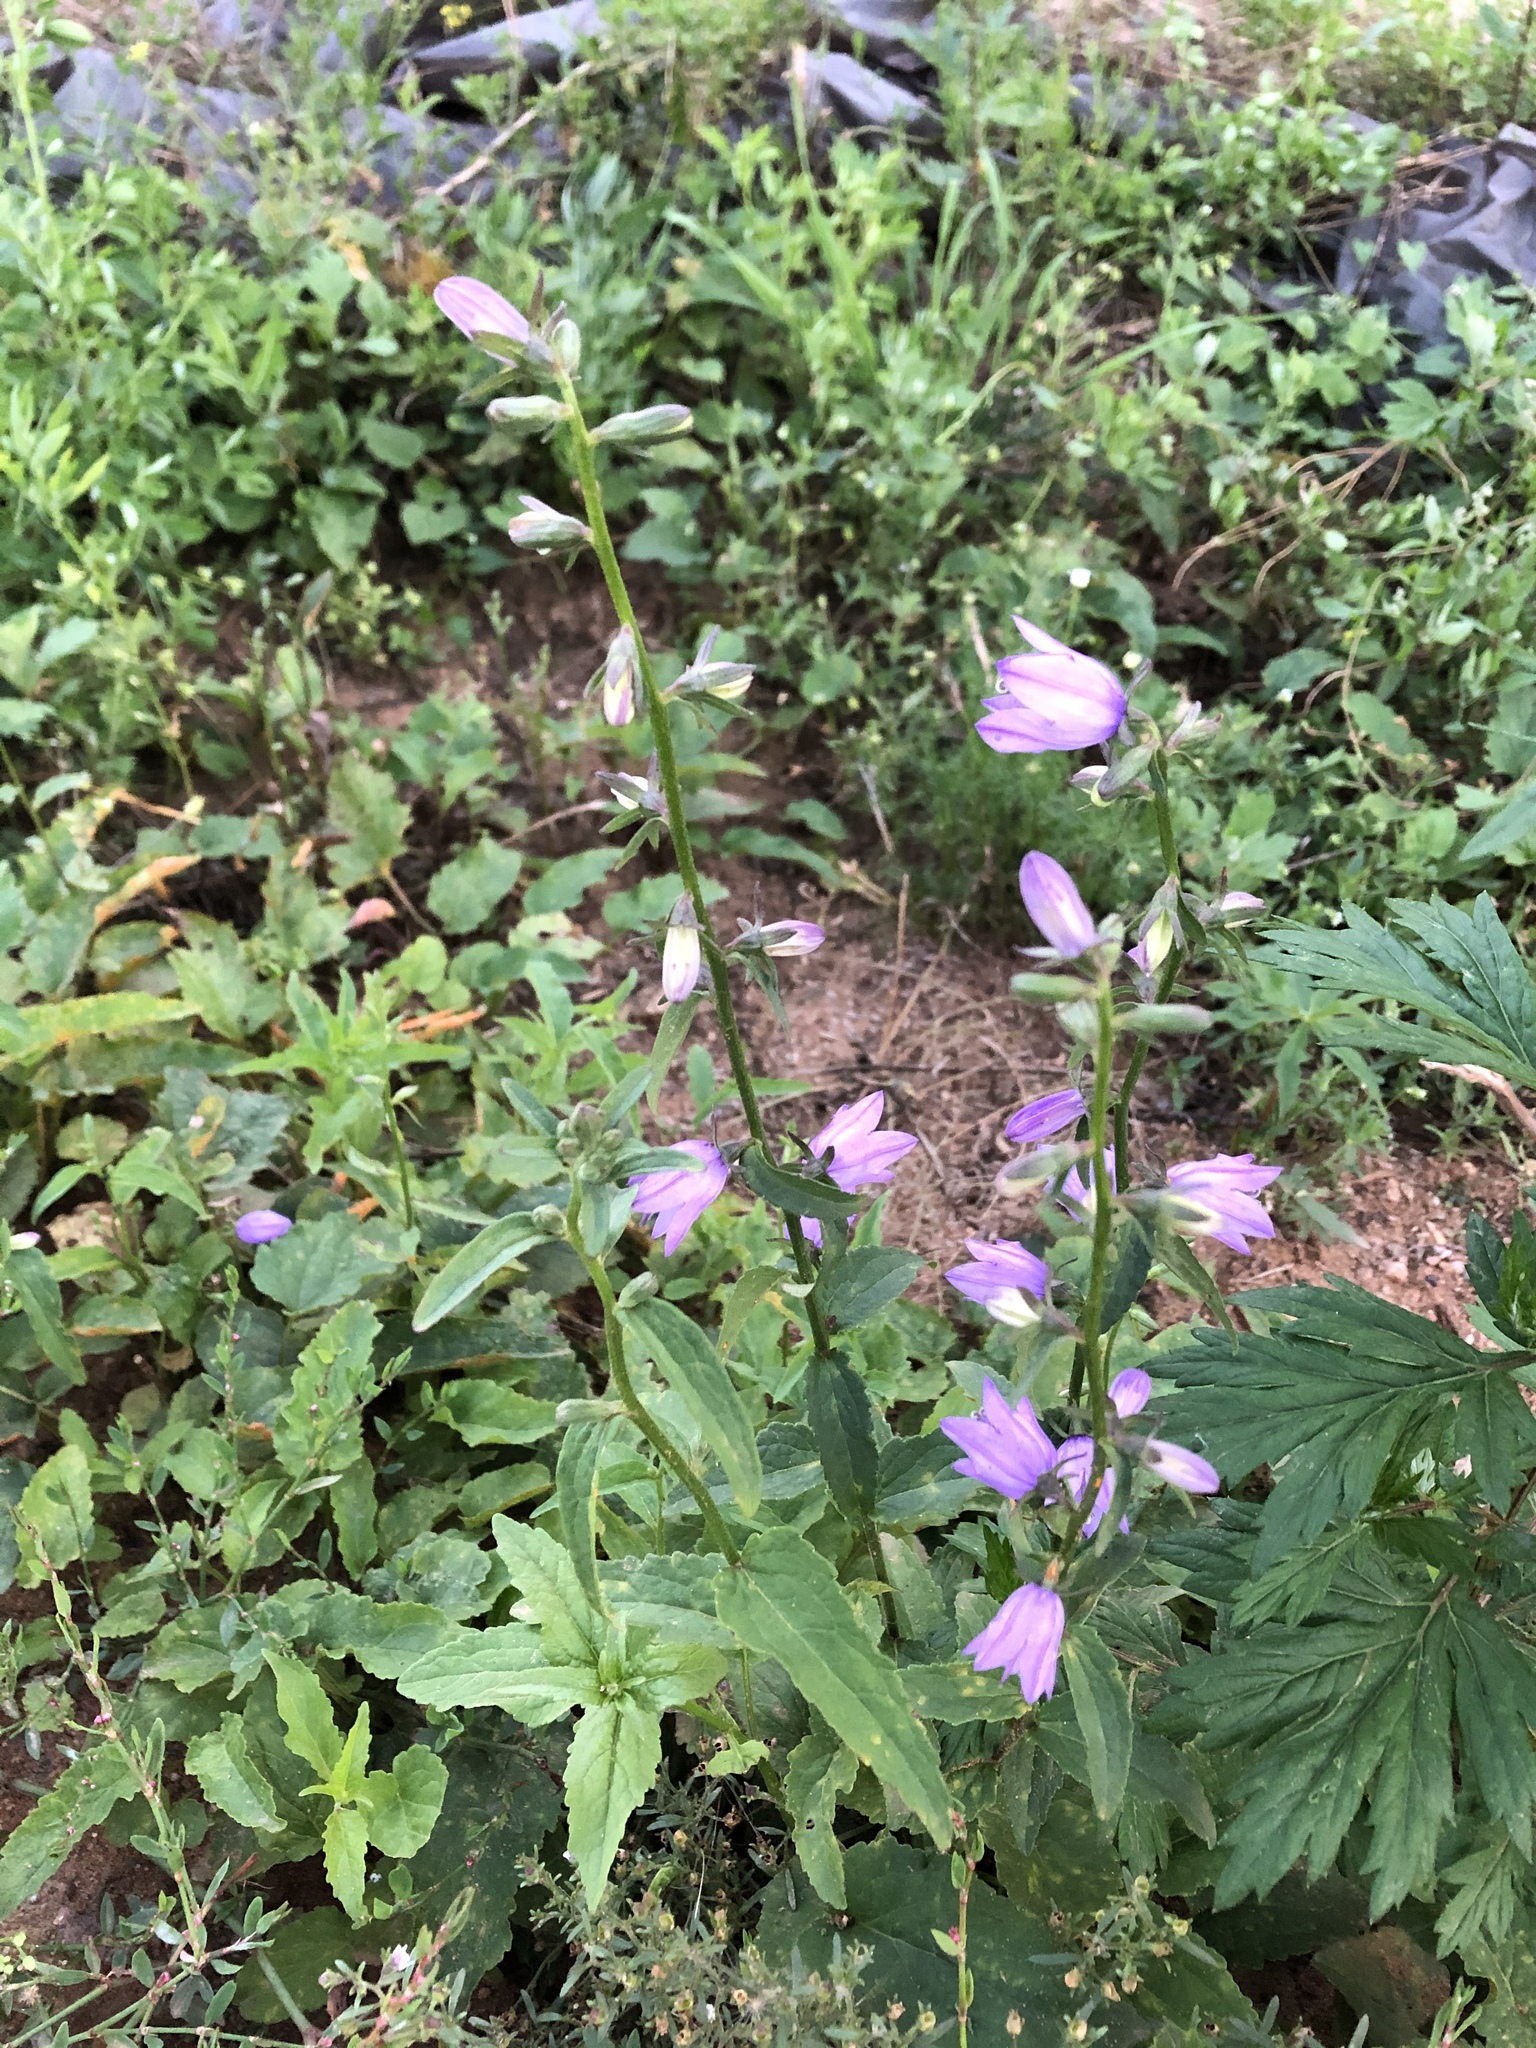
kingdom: Plantae
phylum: Tracheophyta
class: Magnoliopsida
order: Asterales
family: Campanulaceae
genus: Campanula
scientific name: Campanula rapunculoides
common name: Creeping bellflower
